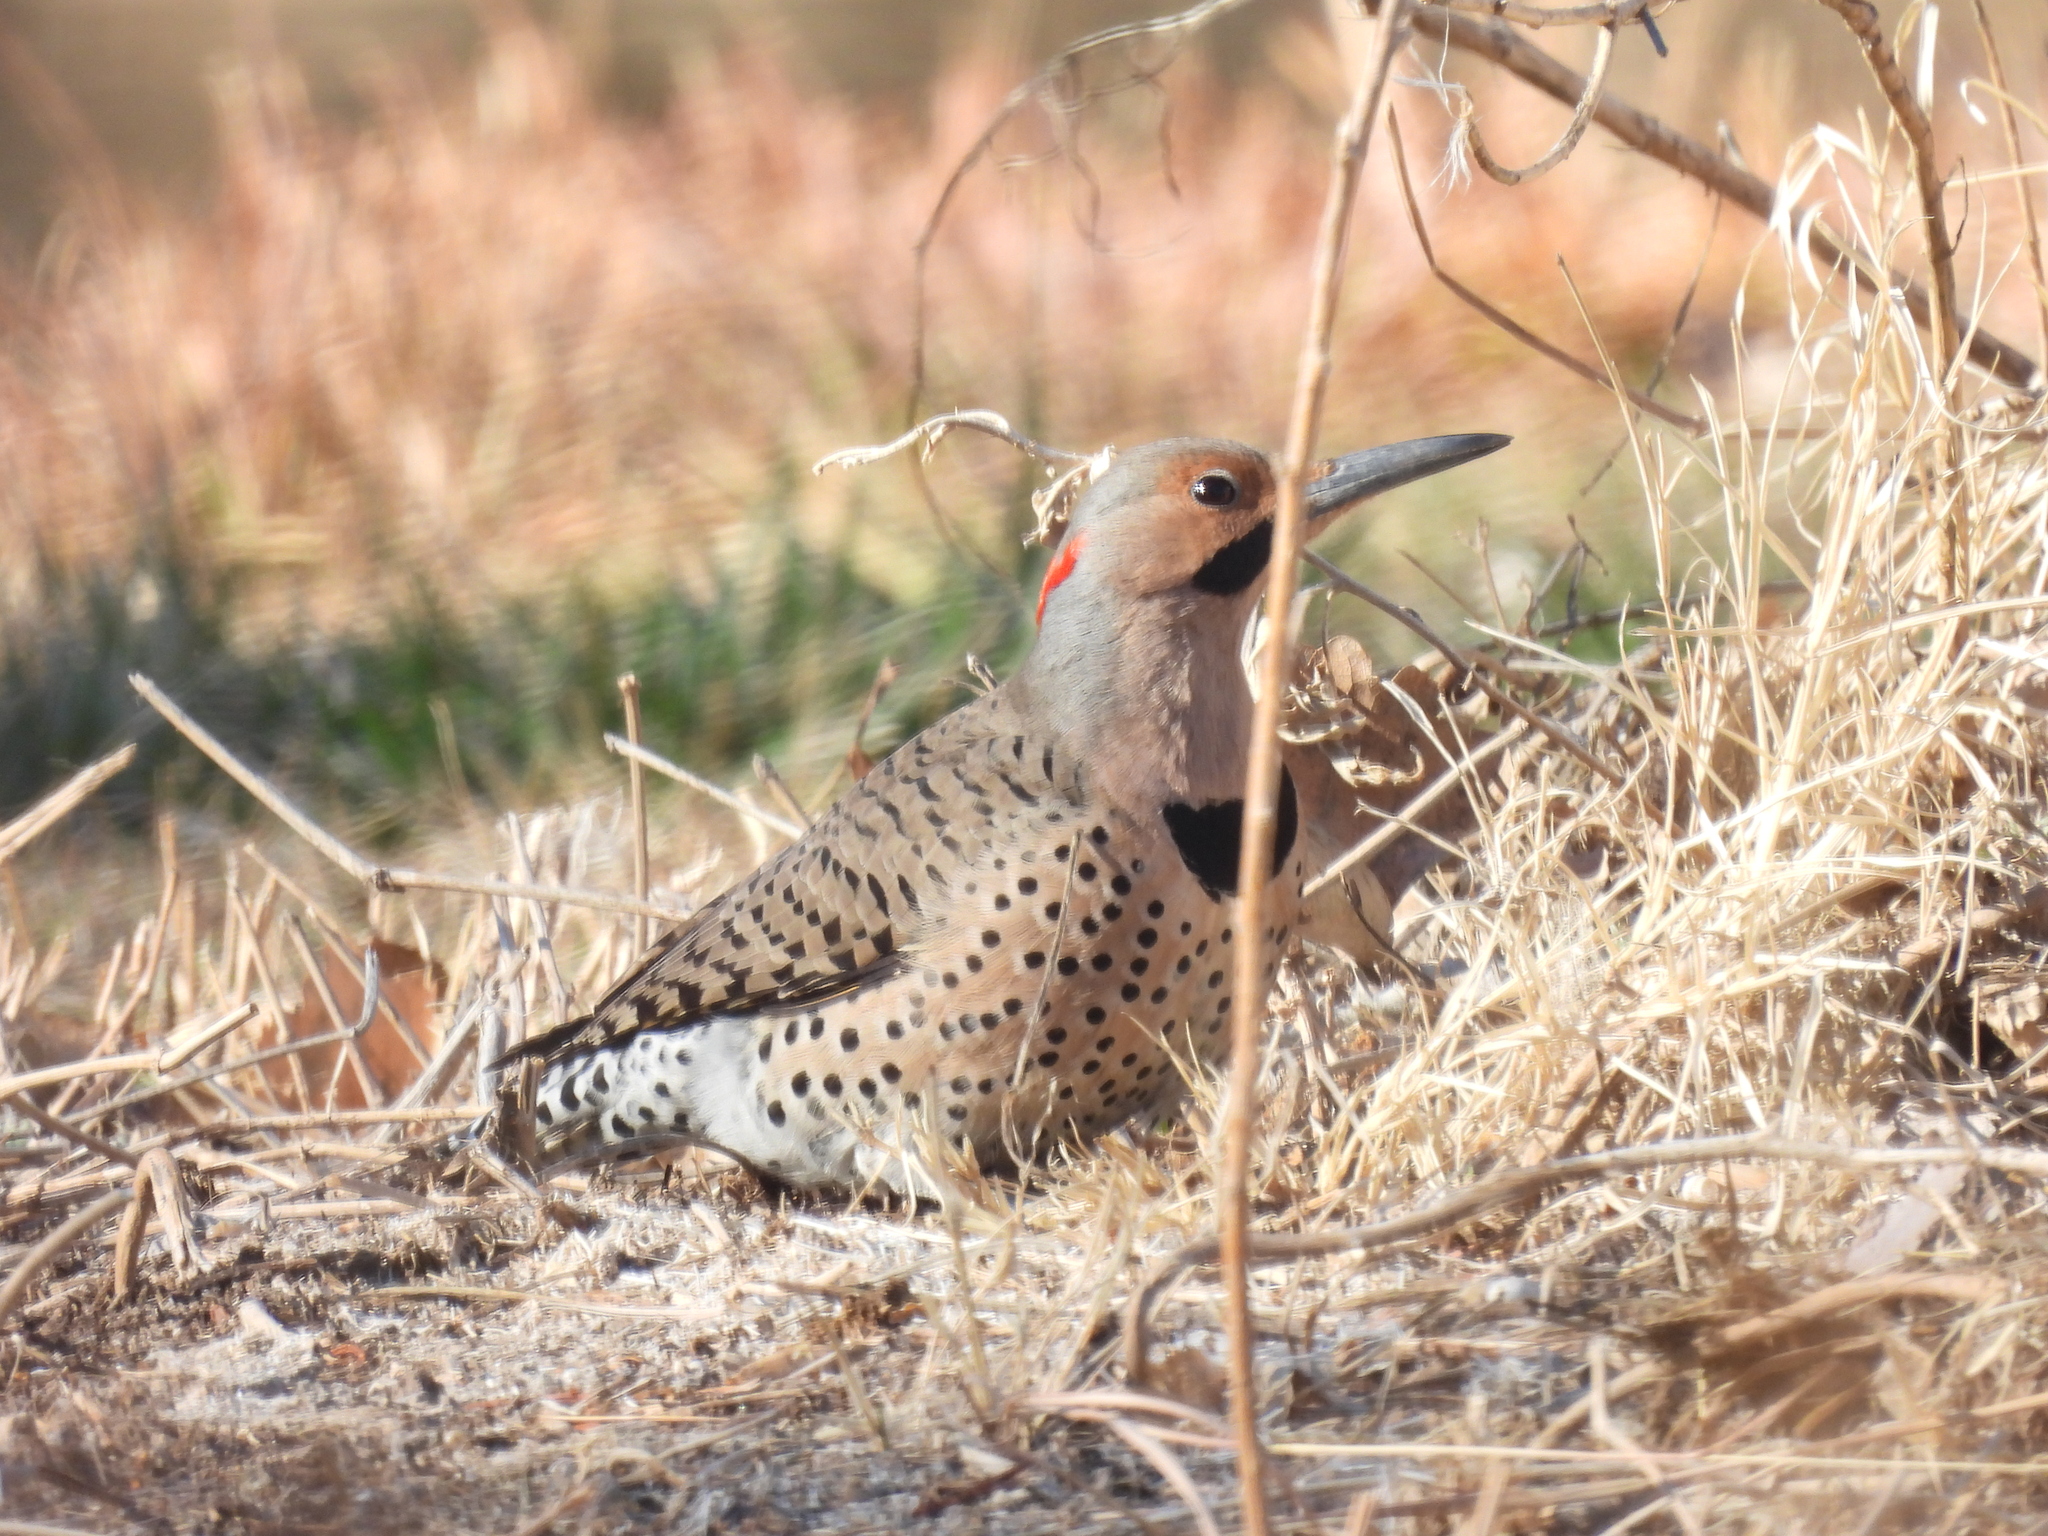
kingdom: Animalia
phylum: Chordata
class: Aves
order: Piciformes
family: Picidae
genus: Colaptes
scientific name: Colaptes auratus
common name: Northern flicker
